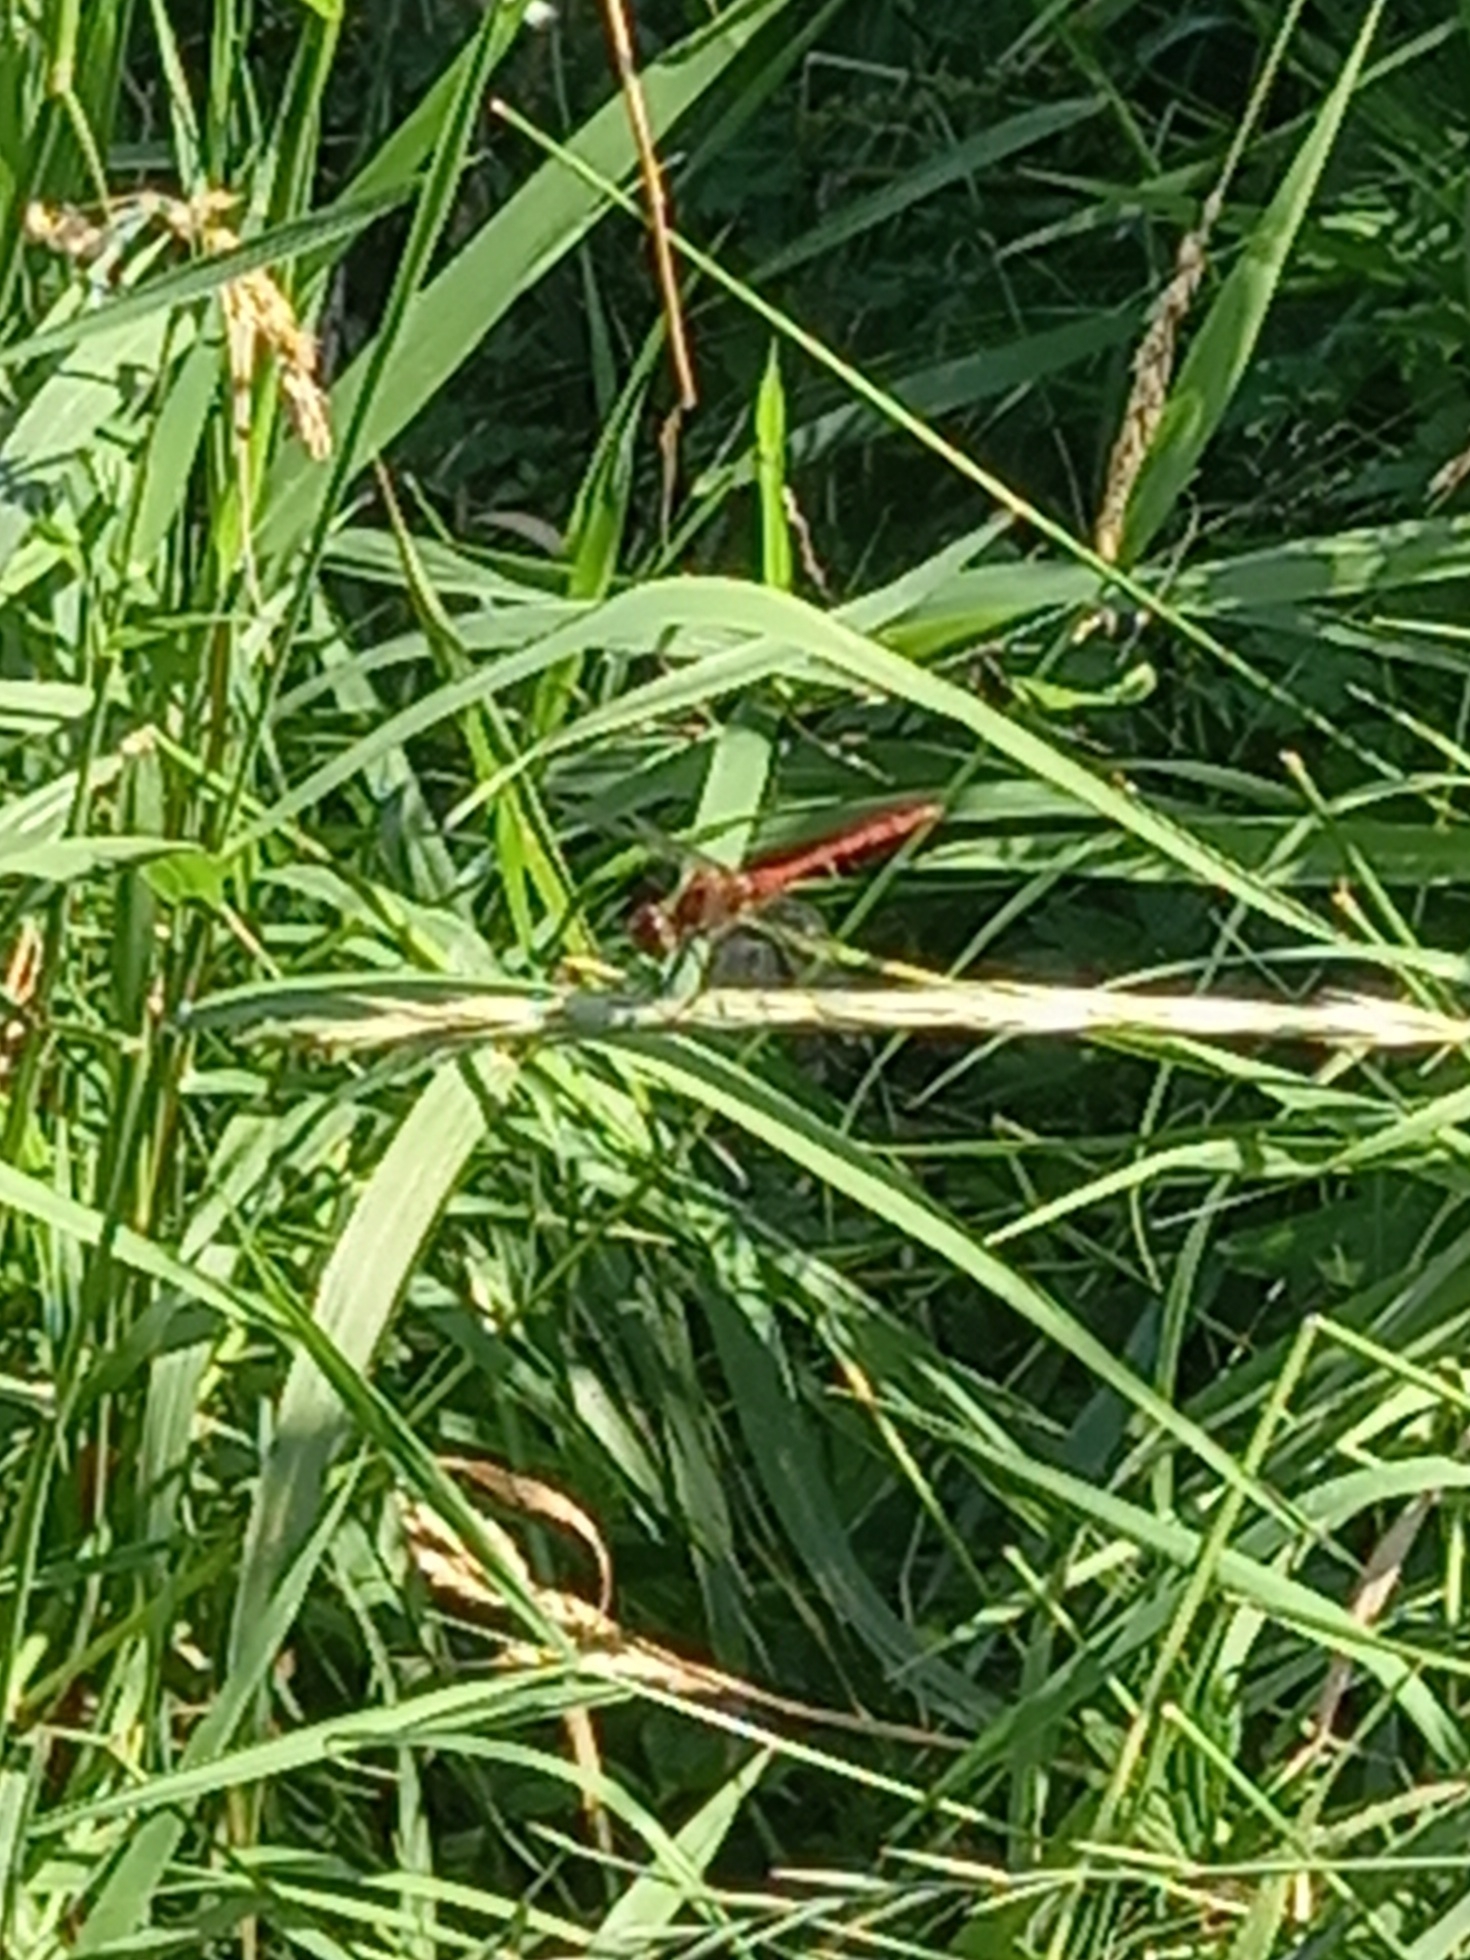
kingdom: Animalia
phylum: Arthropoda
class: Insecta
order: Odonata
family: Libellulidae
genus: Sympetrum
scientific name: Sympetrum sanguineum
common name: Ruddy darter
